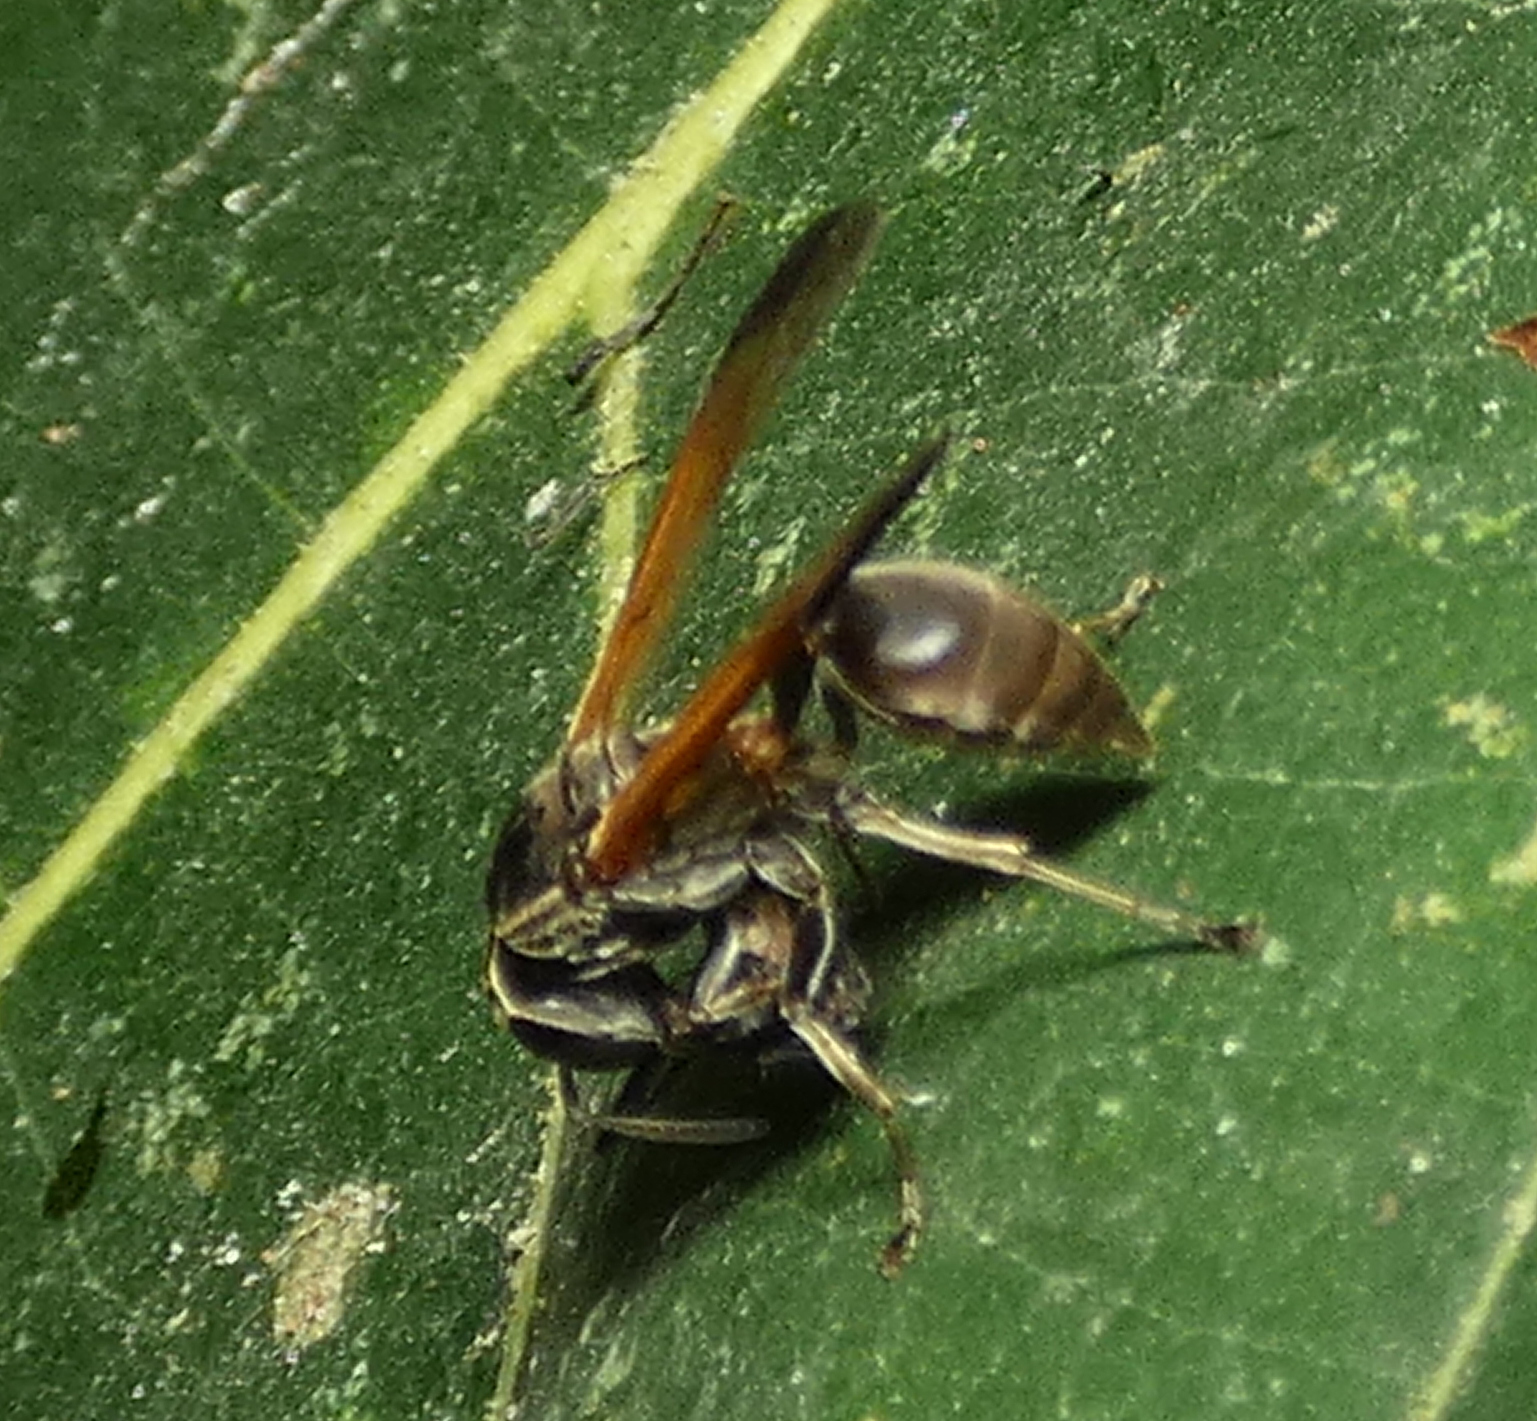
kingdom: Animalia
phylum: Arthropoda
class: Insecta
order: Hymenoptera
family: Eumenidae
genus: Polybia
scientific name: Polybia rejecta
